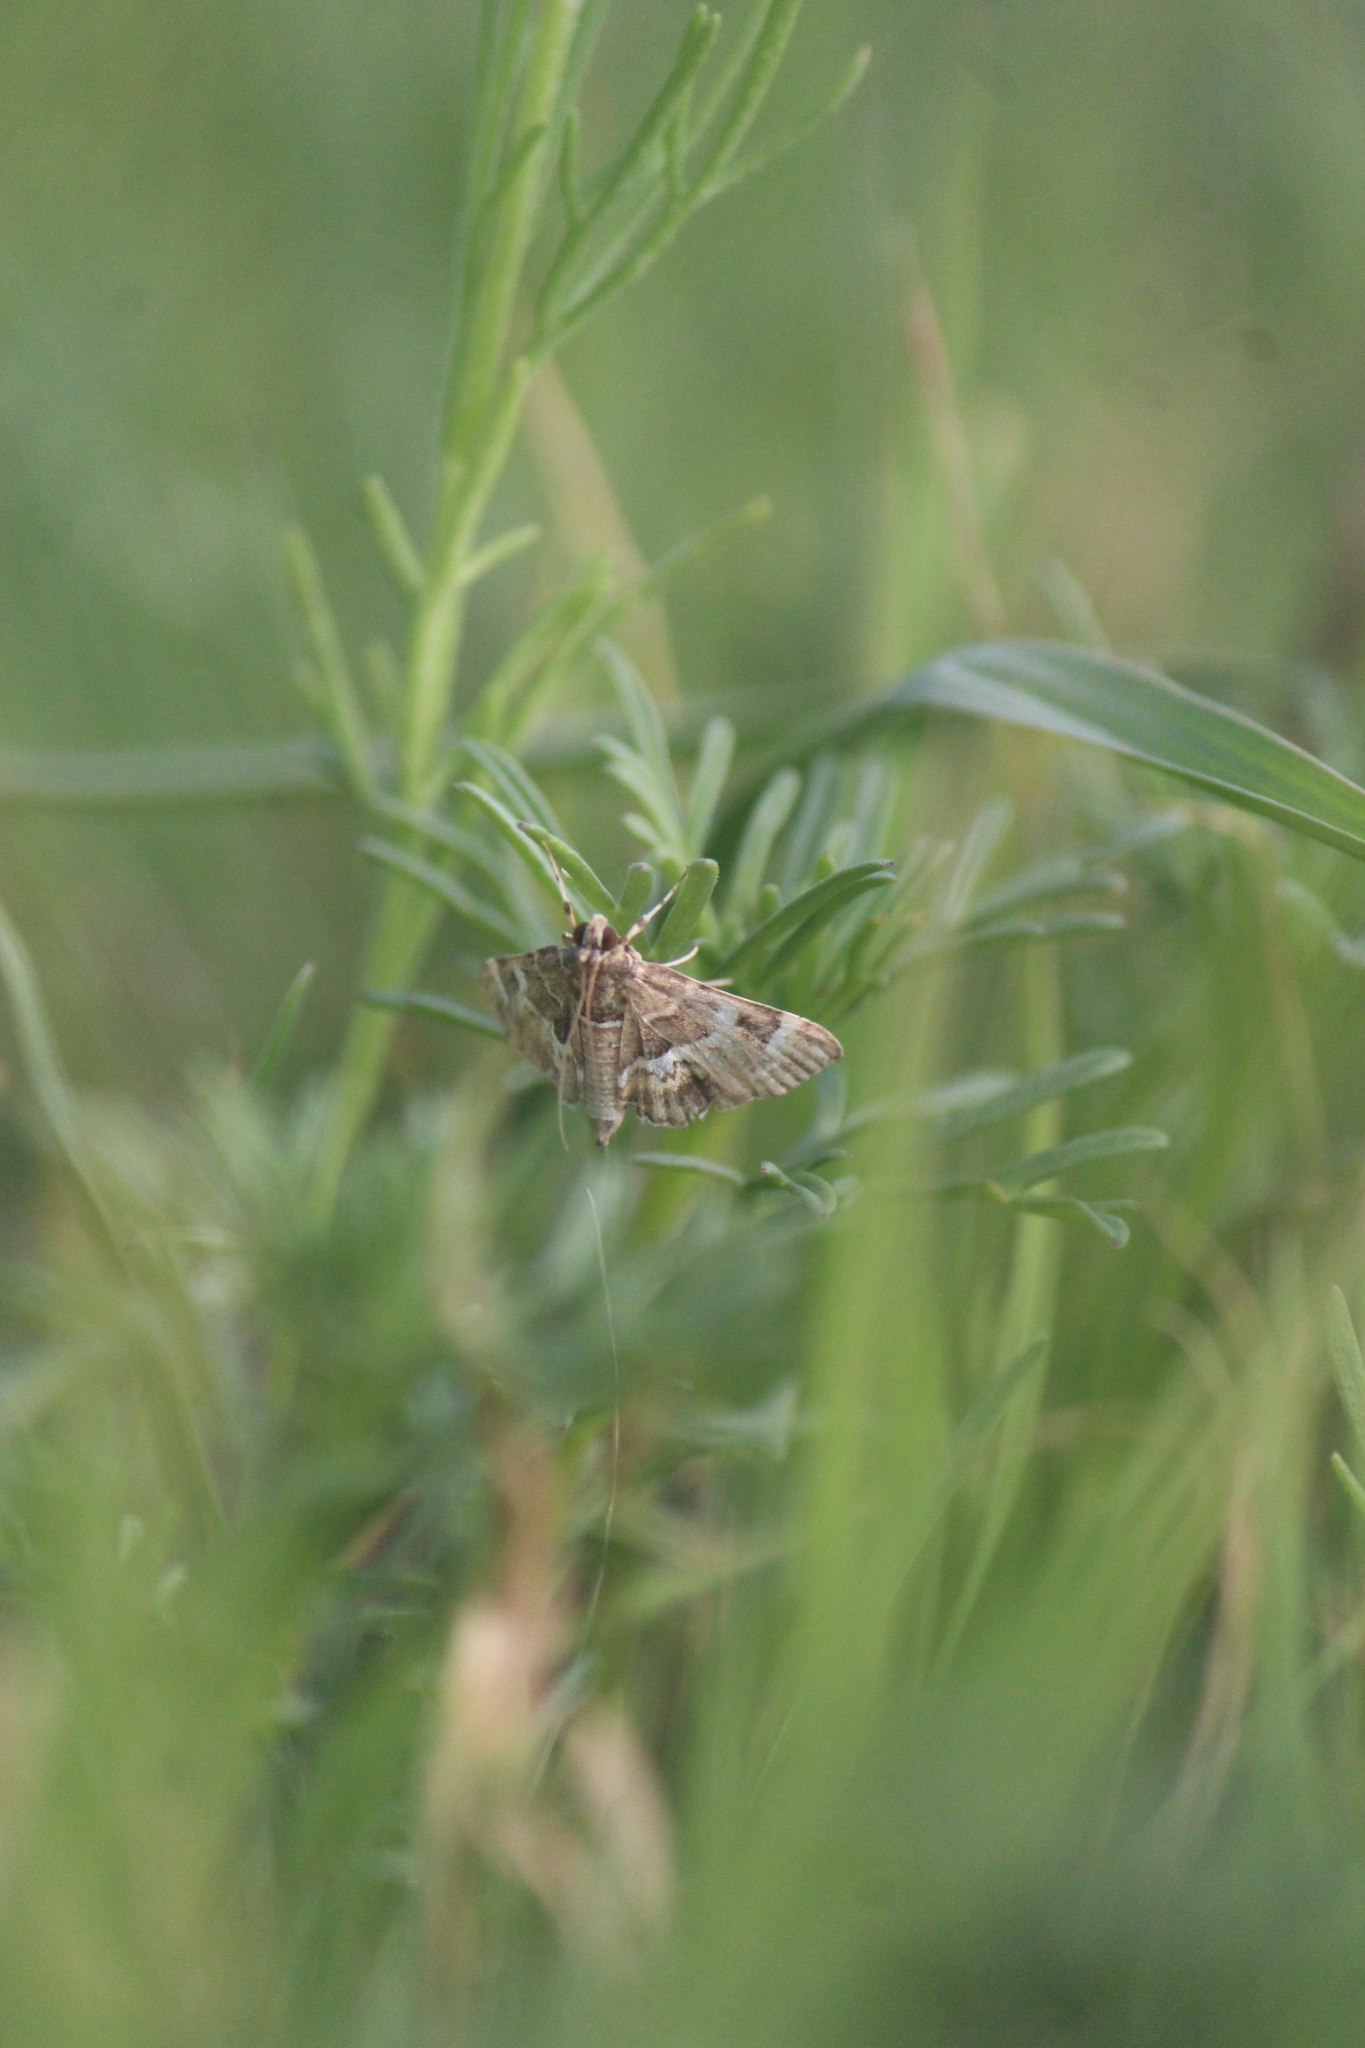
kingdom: Animalia
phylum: Arthropoda
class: Insecta
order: Lepidoptera
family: Crambidae
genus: Hymenia
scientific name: Hymenia perspectalis
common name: Spotted beet webworm
